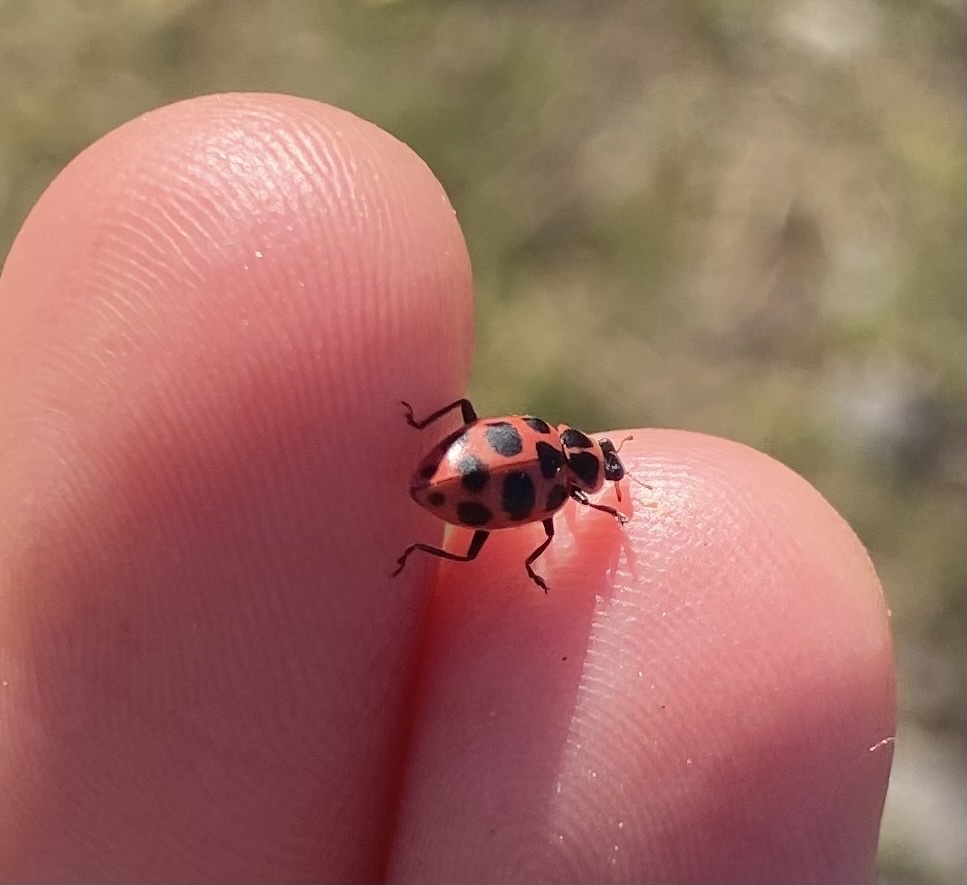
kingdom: Animalia
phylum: Arthropoda
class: Insecta
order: Coleoptera
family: Coccinellidae
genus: Coleomegilla
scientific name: Coleomegilla maculata
